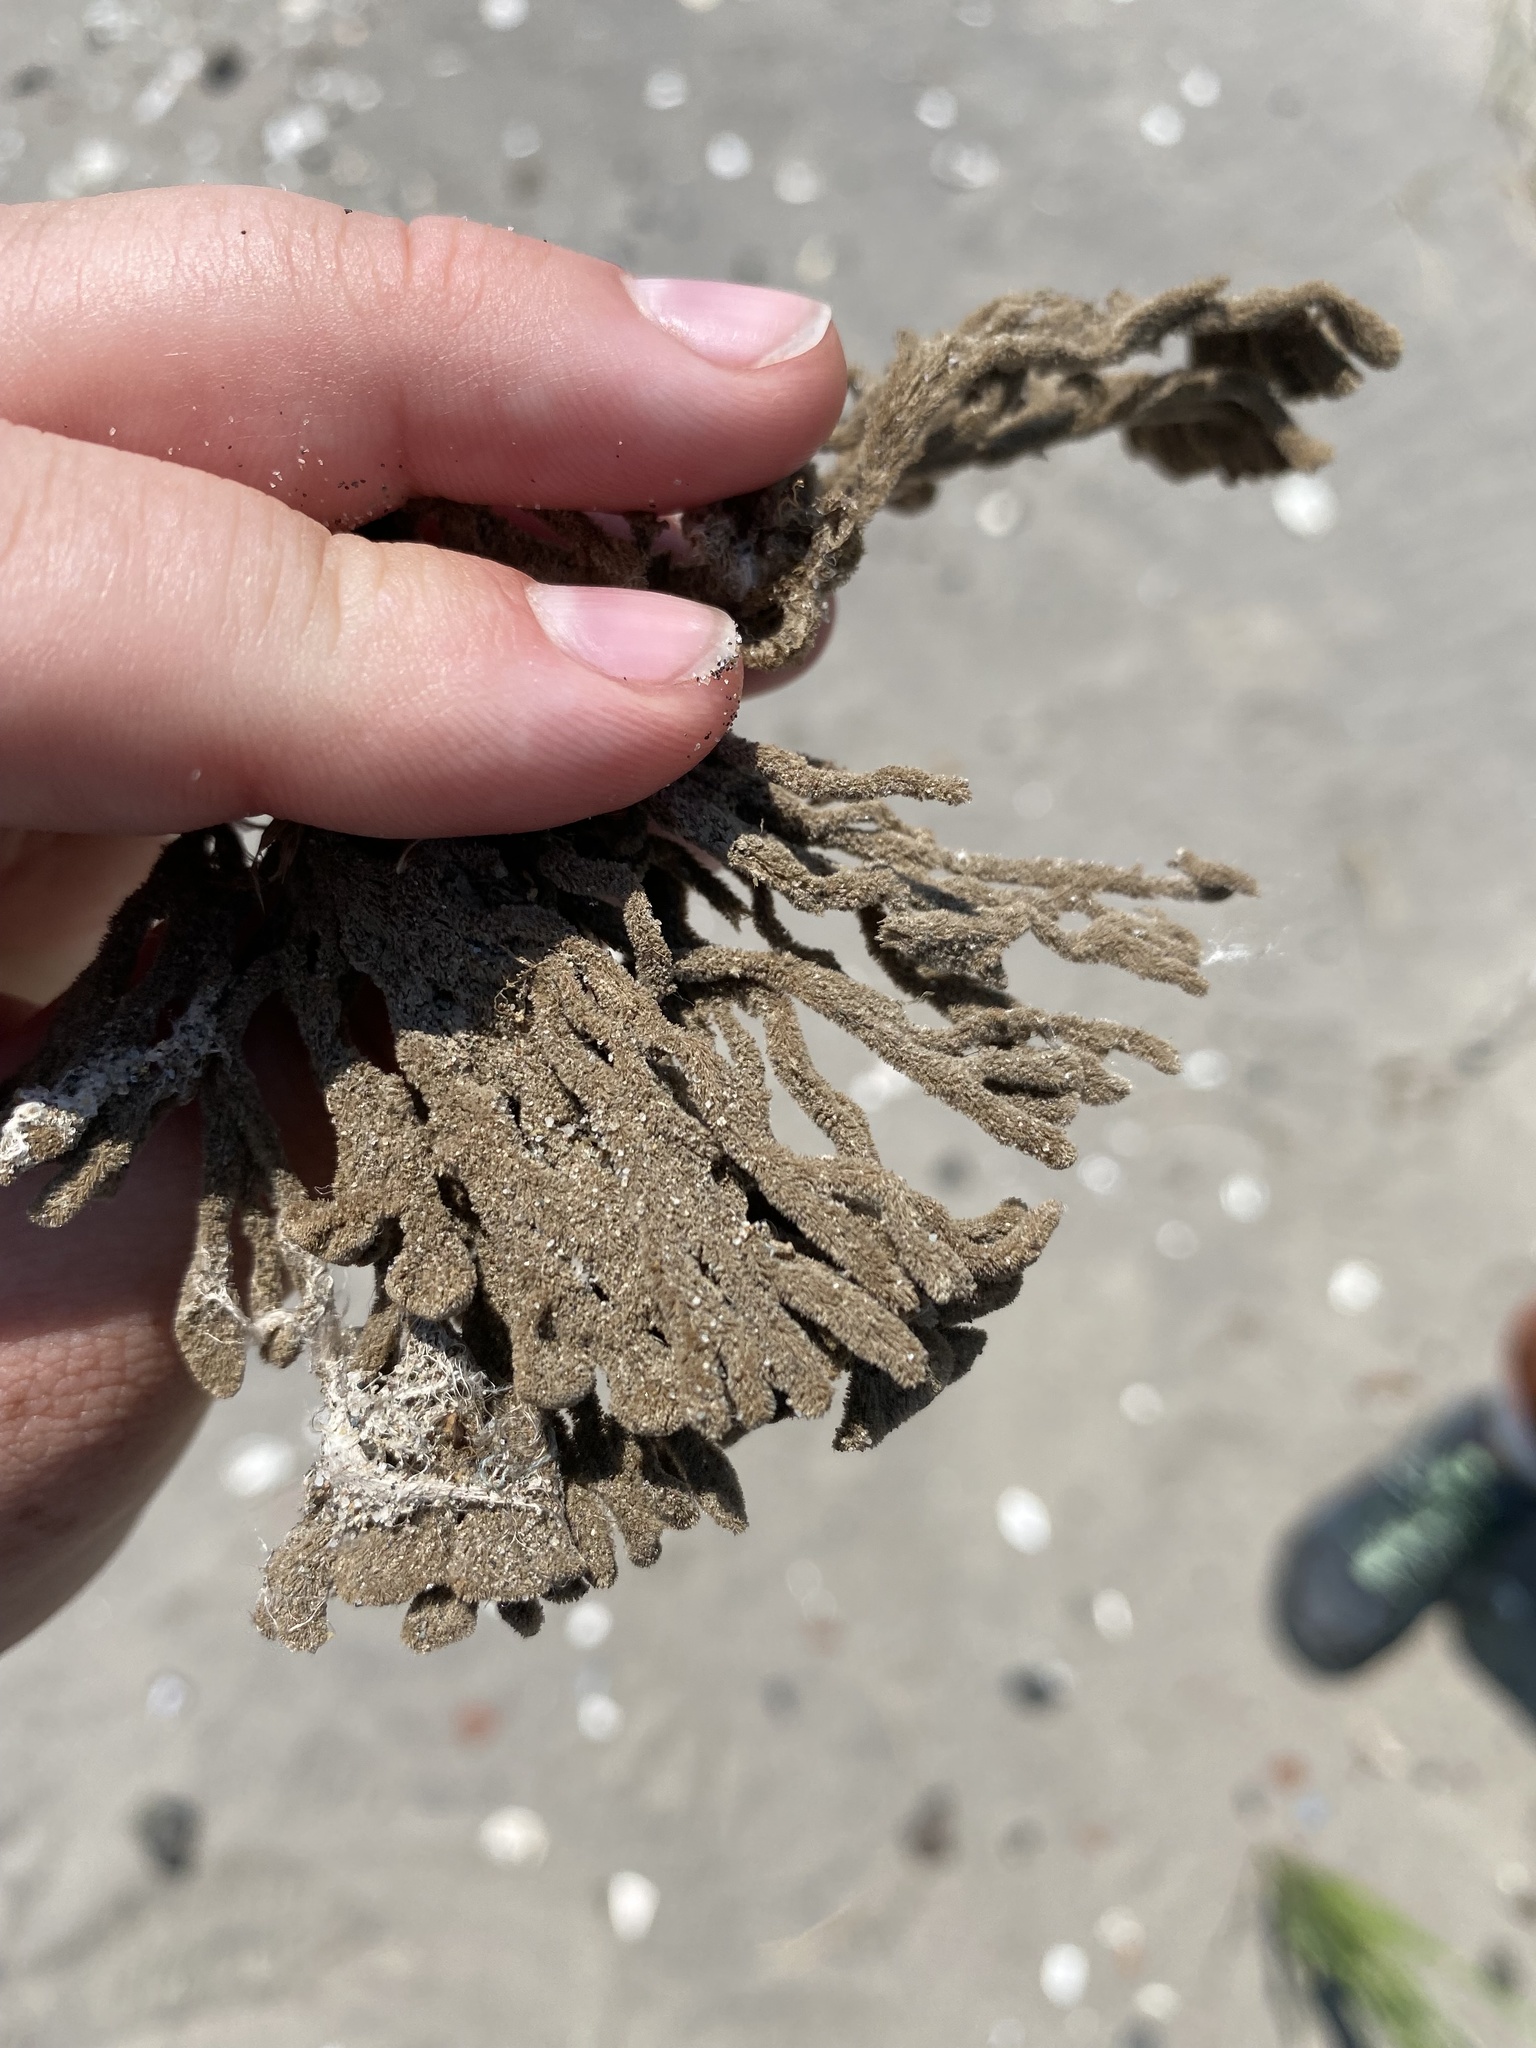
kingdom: Animalia
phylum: Porifera
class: Demospongiae
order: Poecilosclerida
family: Microcionidae
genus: Clathria
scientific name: Clathria prolifera
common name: Red beard sponge
